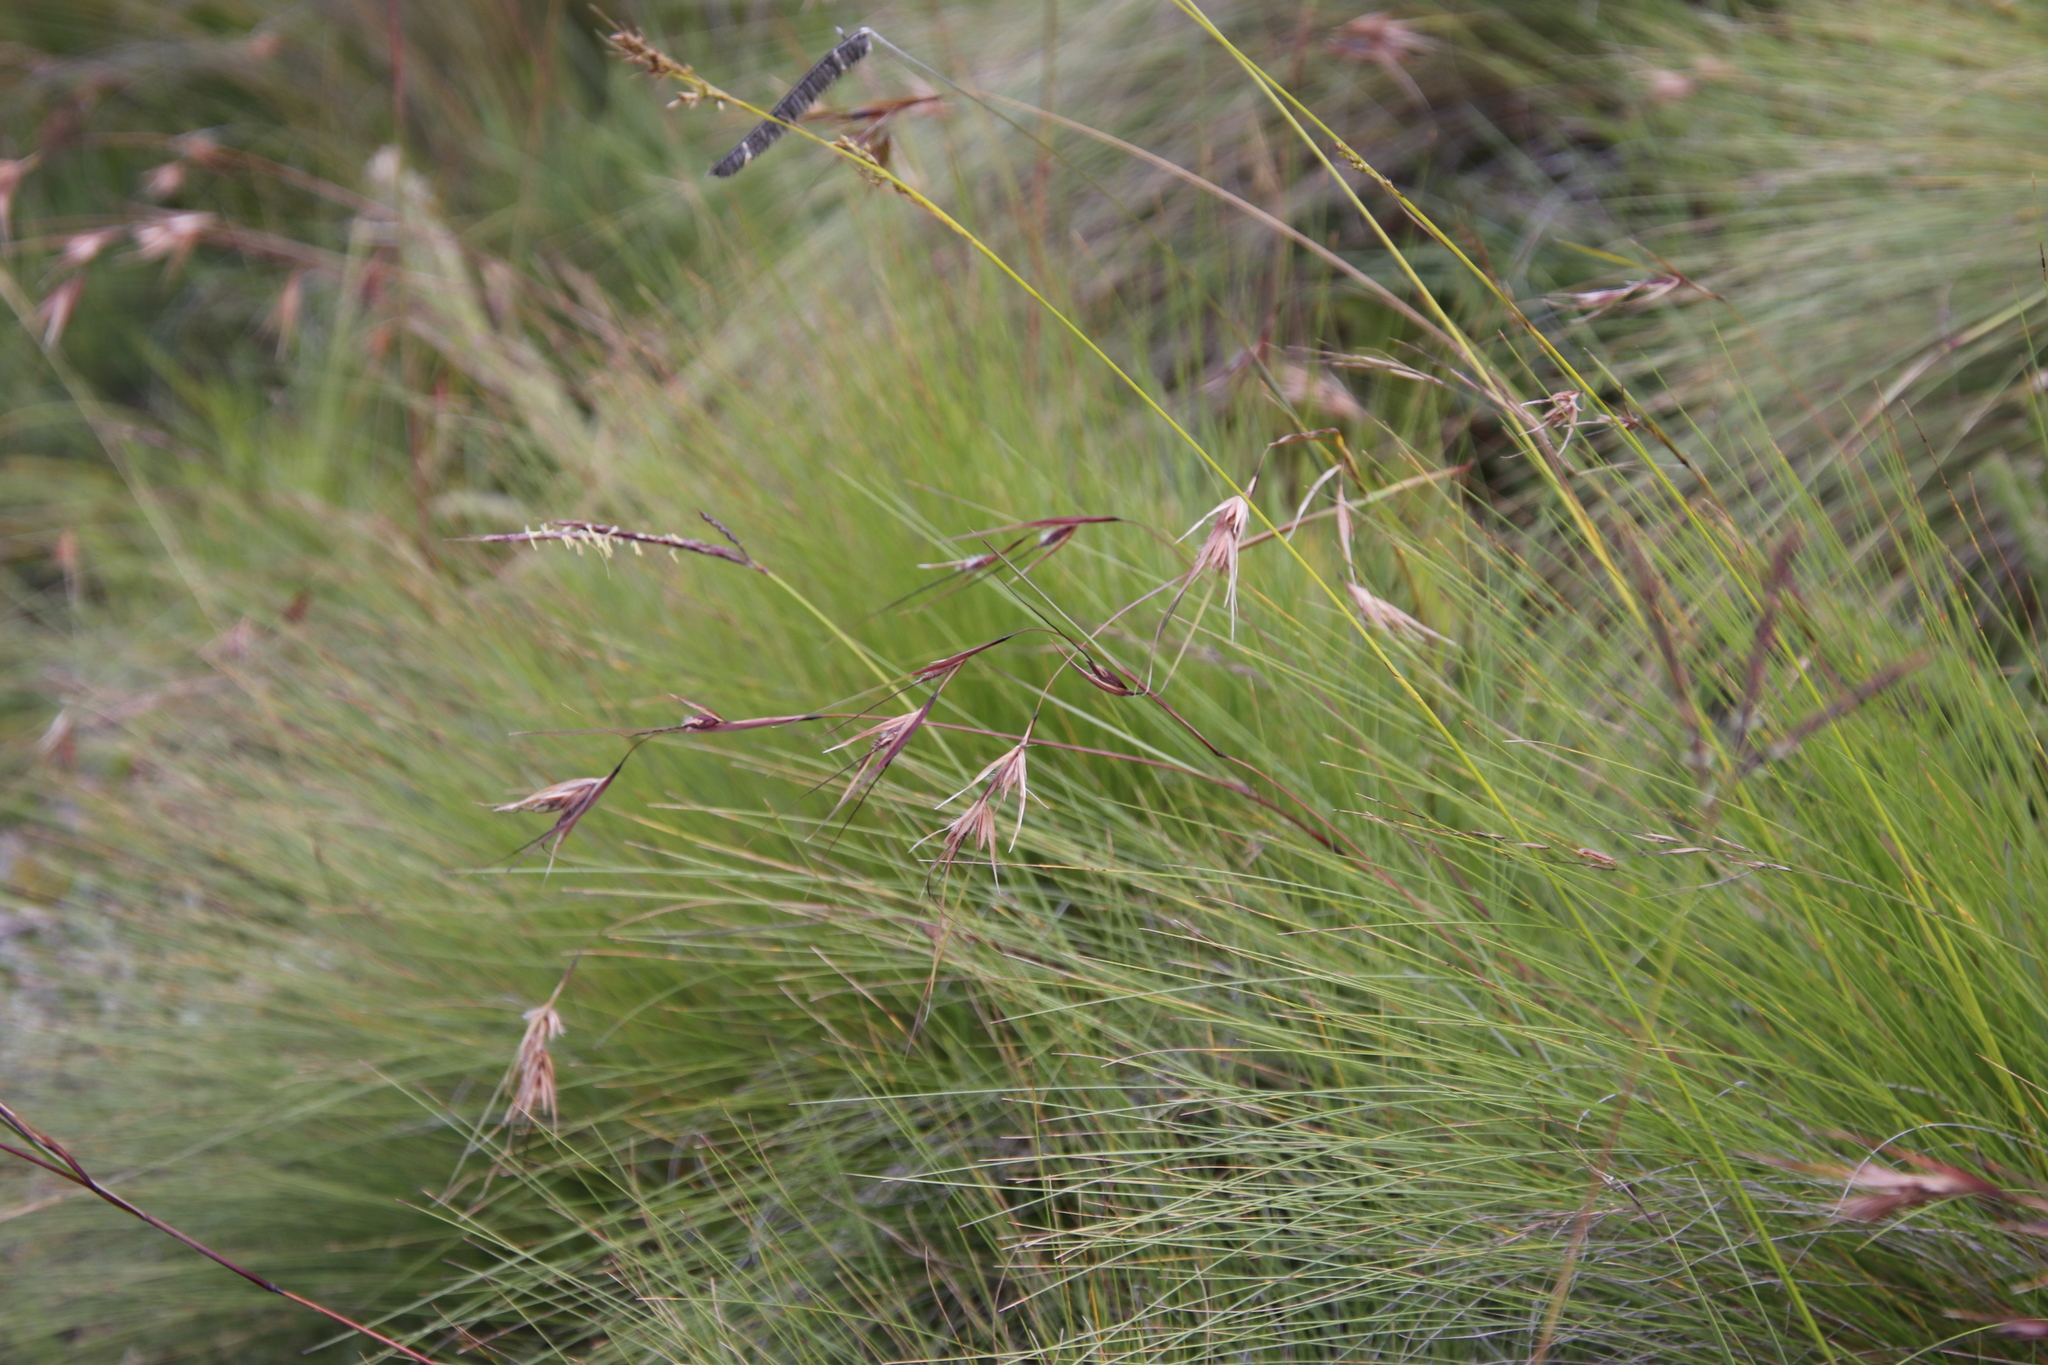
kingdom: Plantae
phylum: Tracheophyta
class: Liliopsida
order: Poales
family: Poaceae
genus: Themeda
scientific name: Themeda triandra
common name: Kangaroo grass
